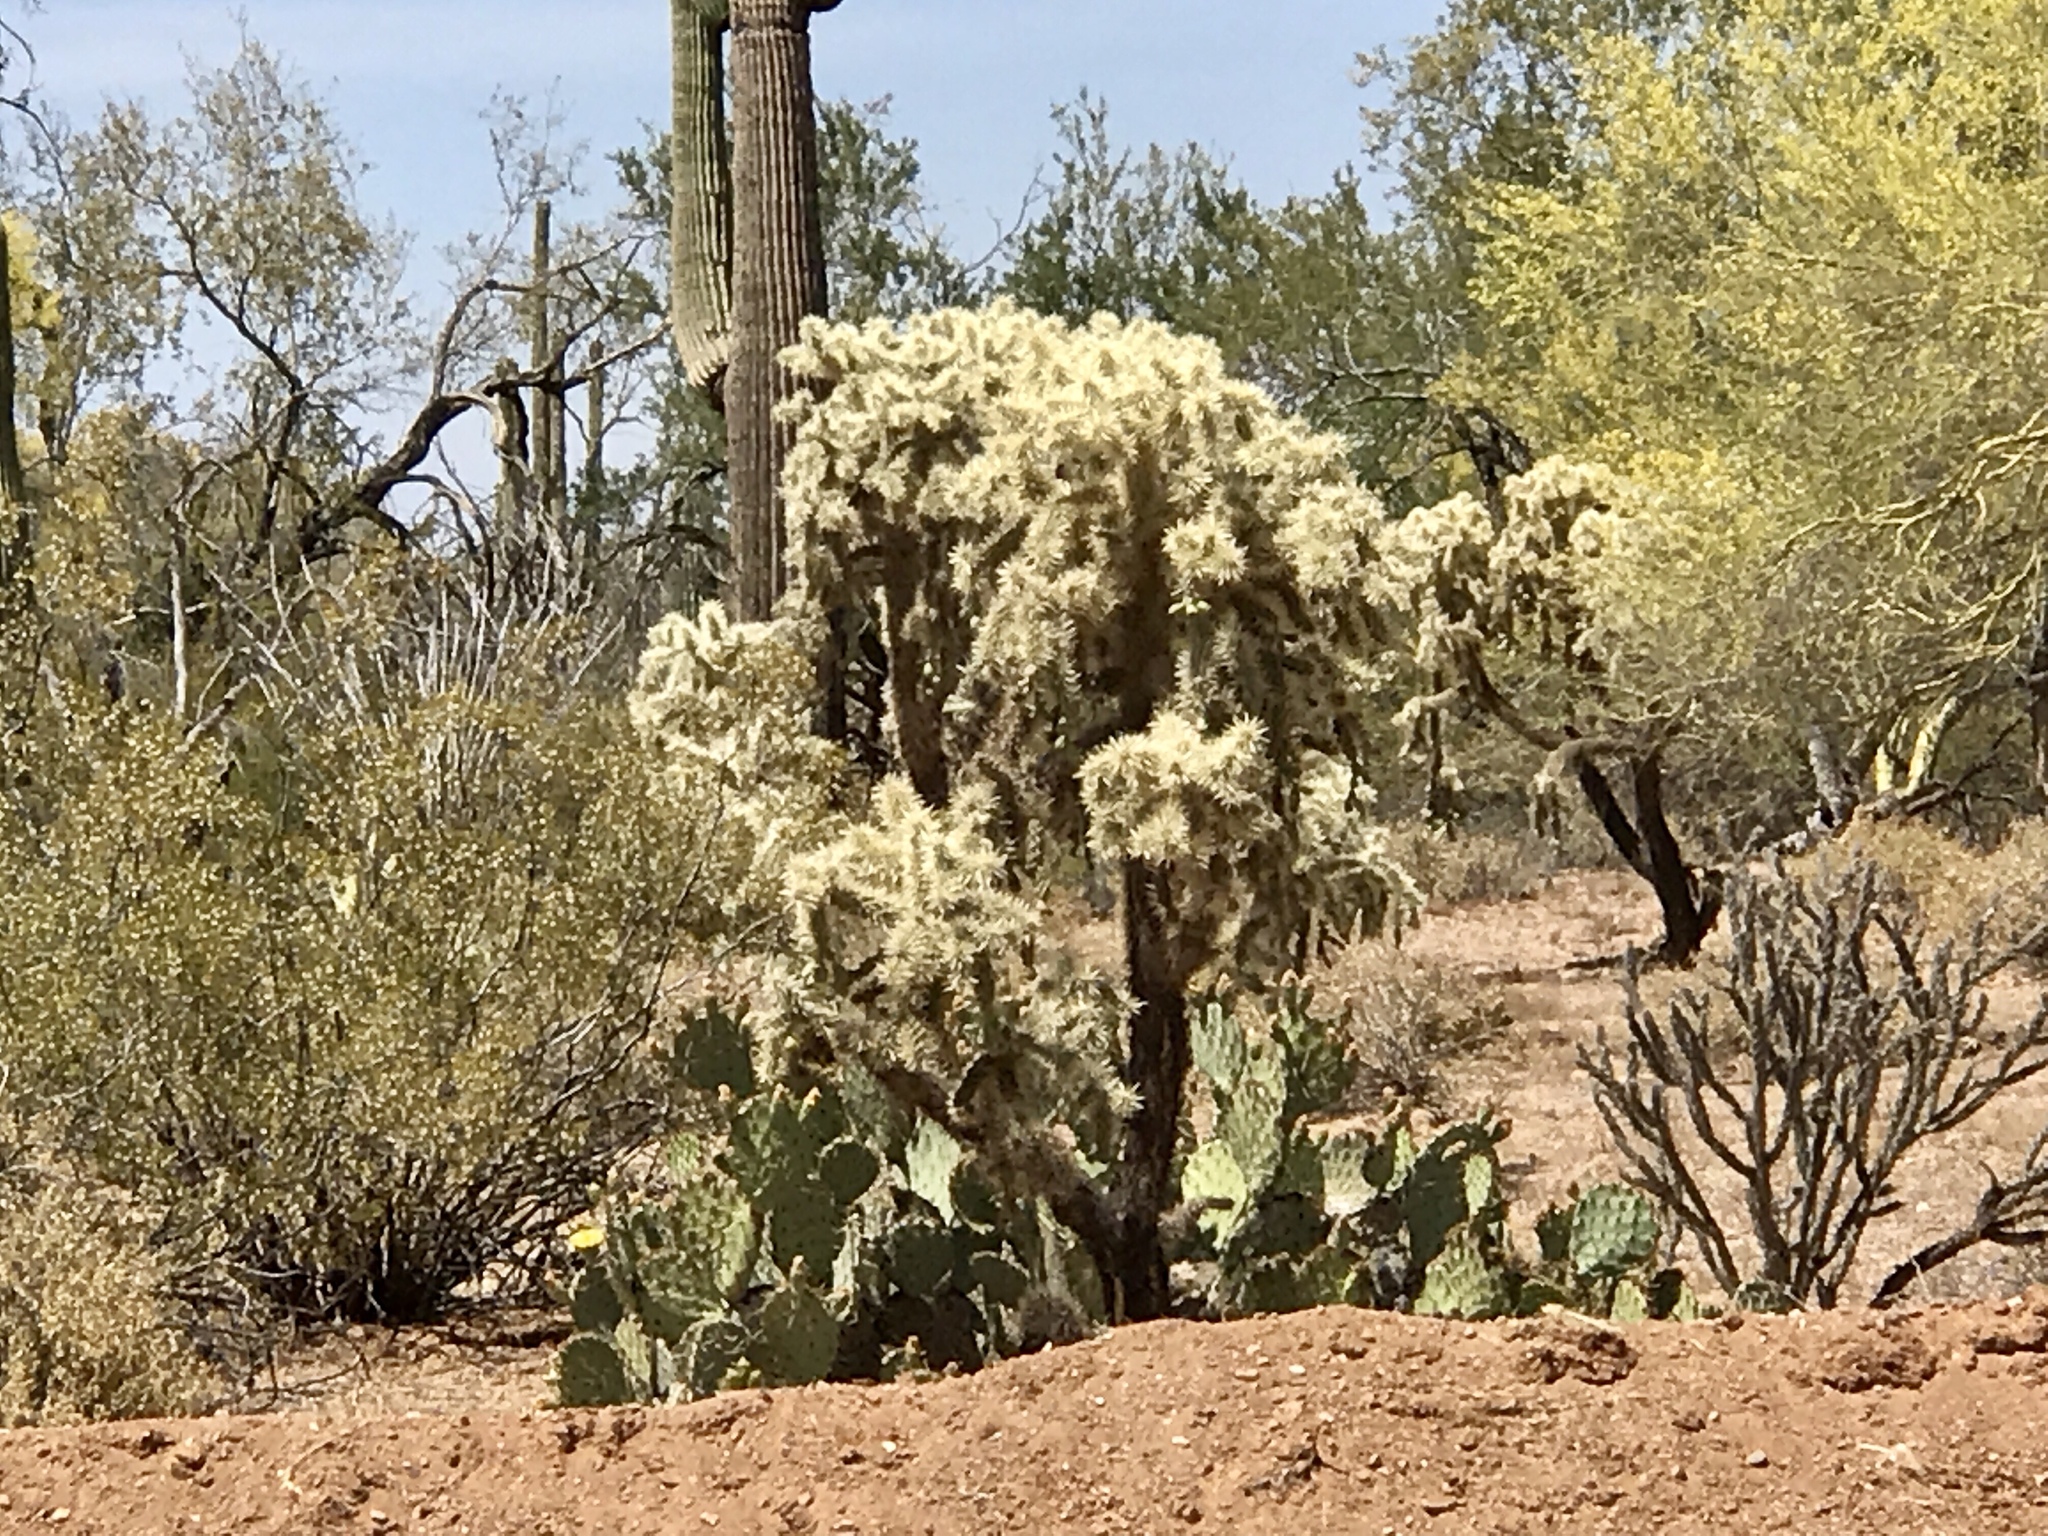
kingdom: Plantae
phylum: Tracheophyta
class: Magnoliopsida
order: Caryophyllales
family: Cactaceae
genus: Cylindropuntia
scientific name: Cylindropuntia fulgida
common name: Jumping cholla
